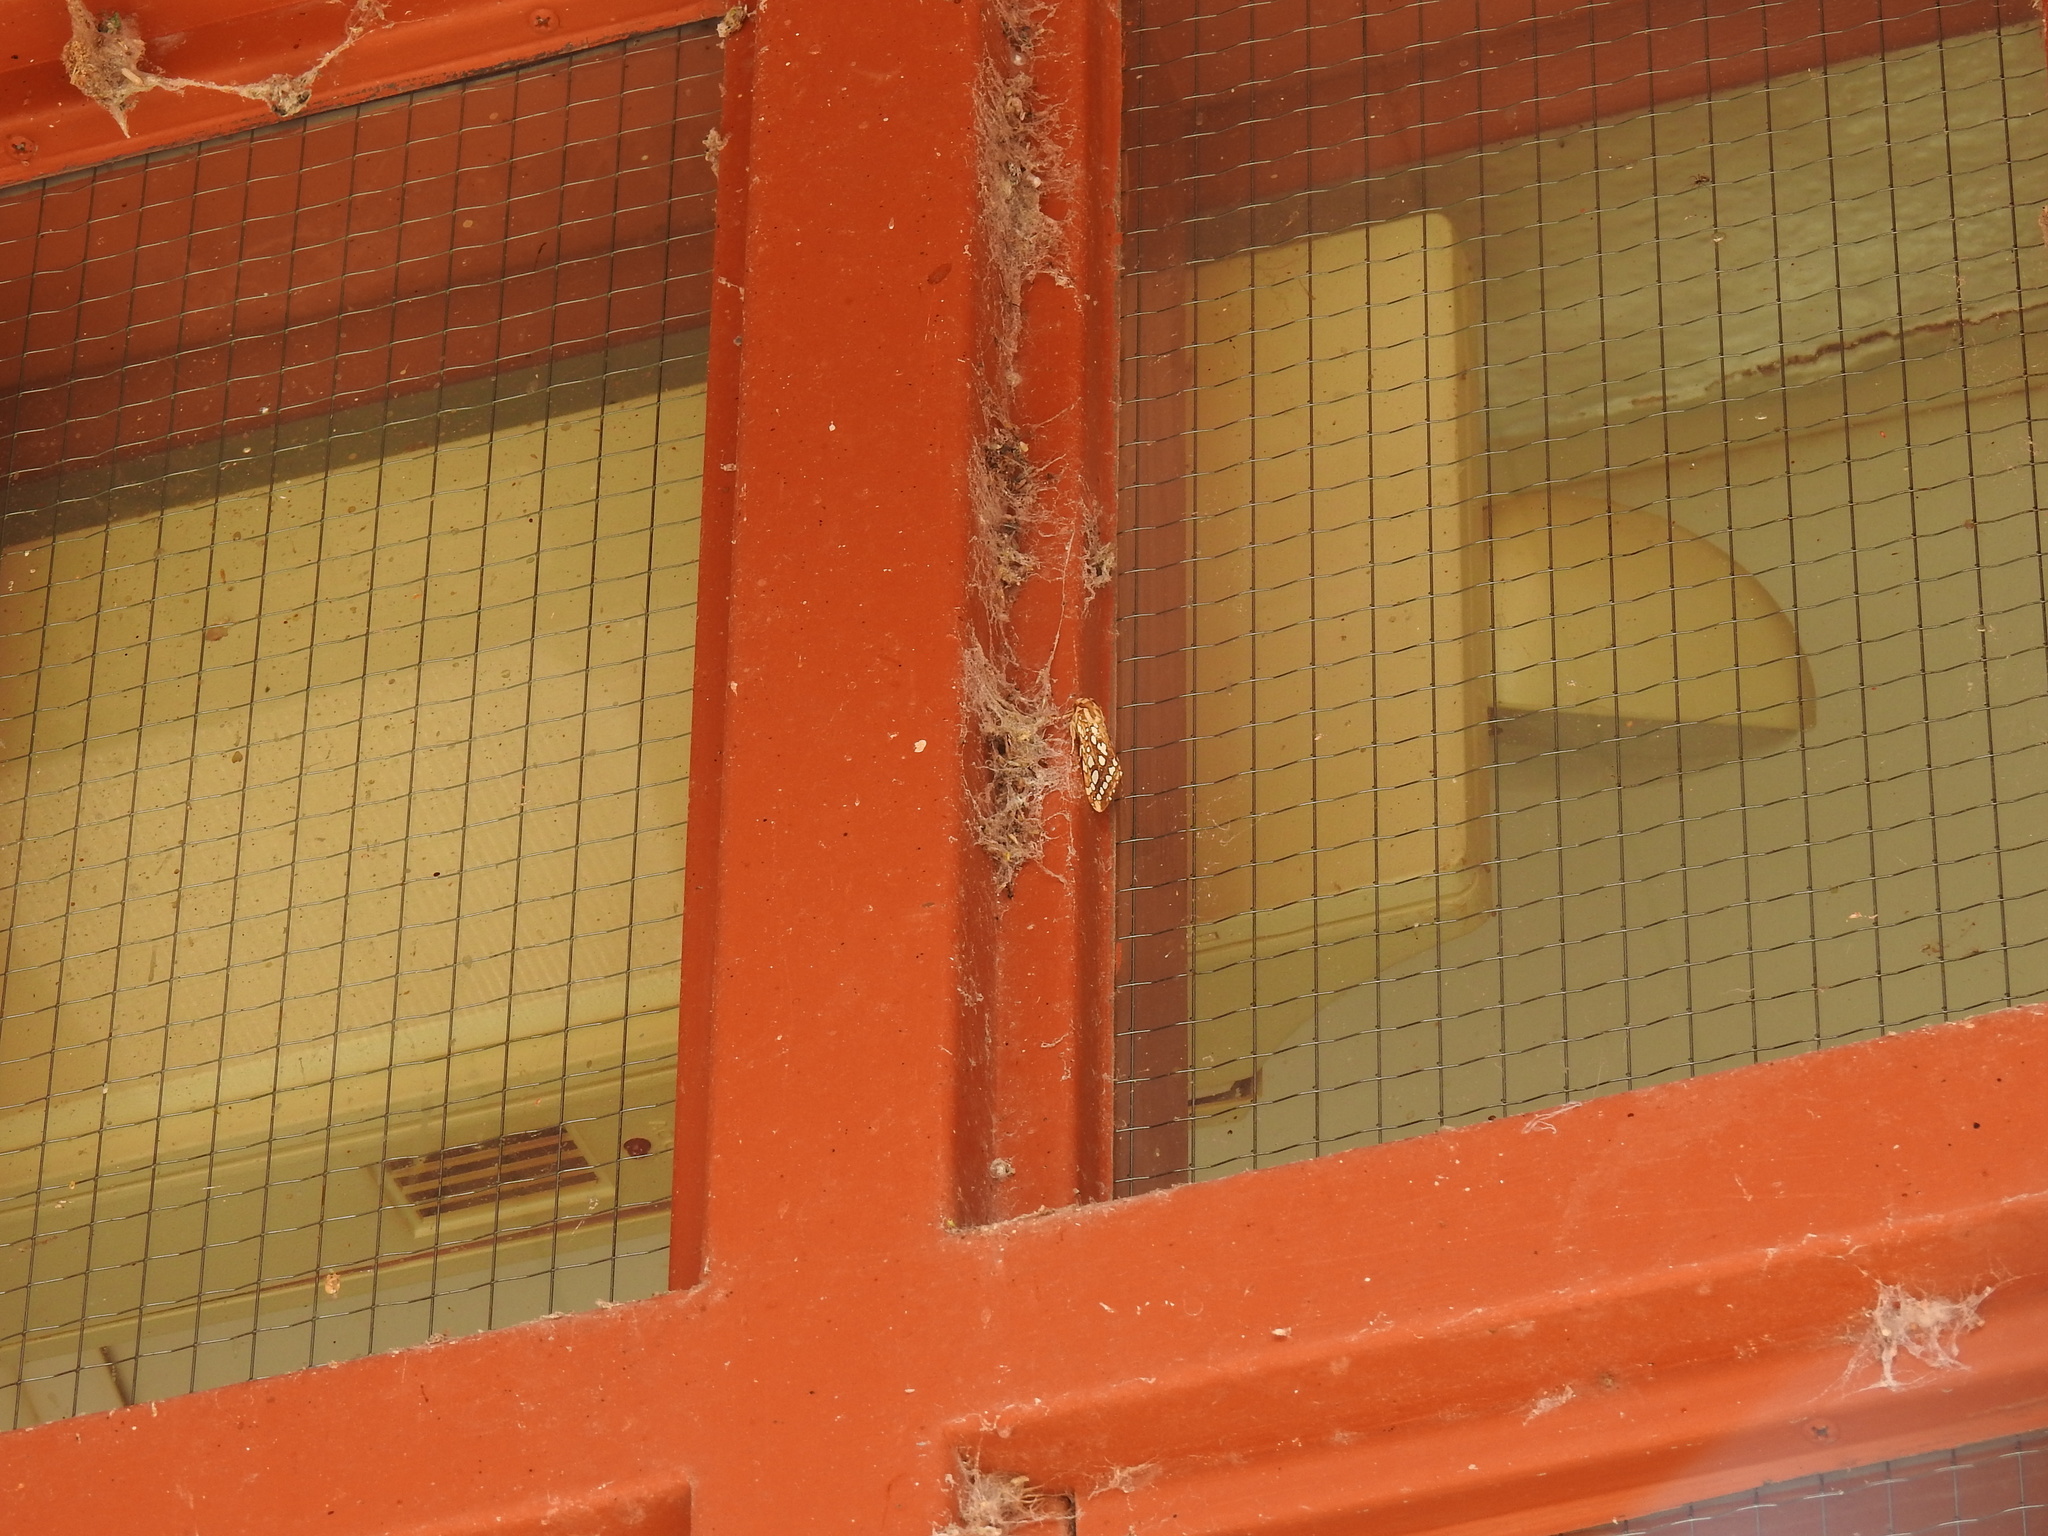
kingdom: Animalia
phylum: Arthropoda
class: Insecta
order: Lepidoptera
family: Erebidae
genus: Lophocampa
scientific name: Lophocampa argentata
